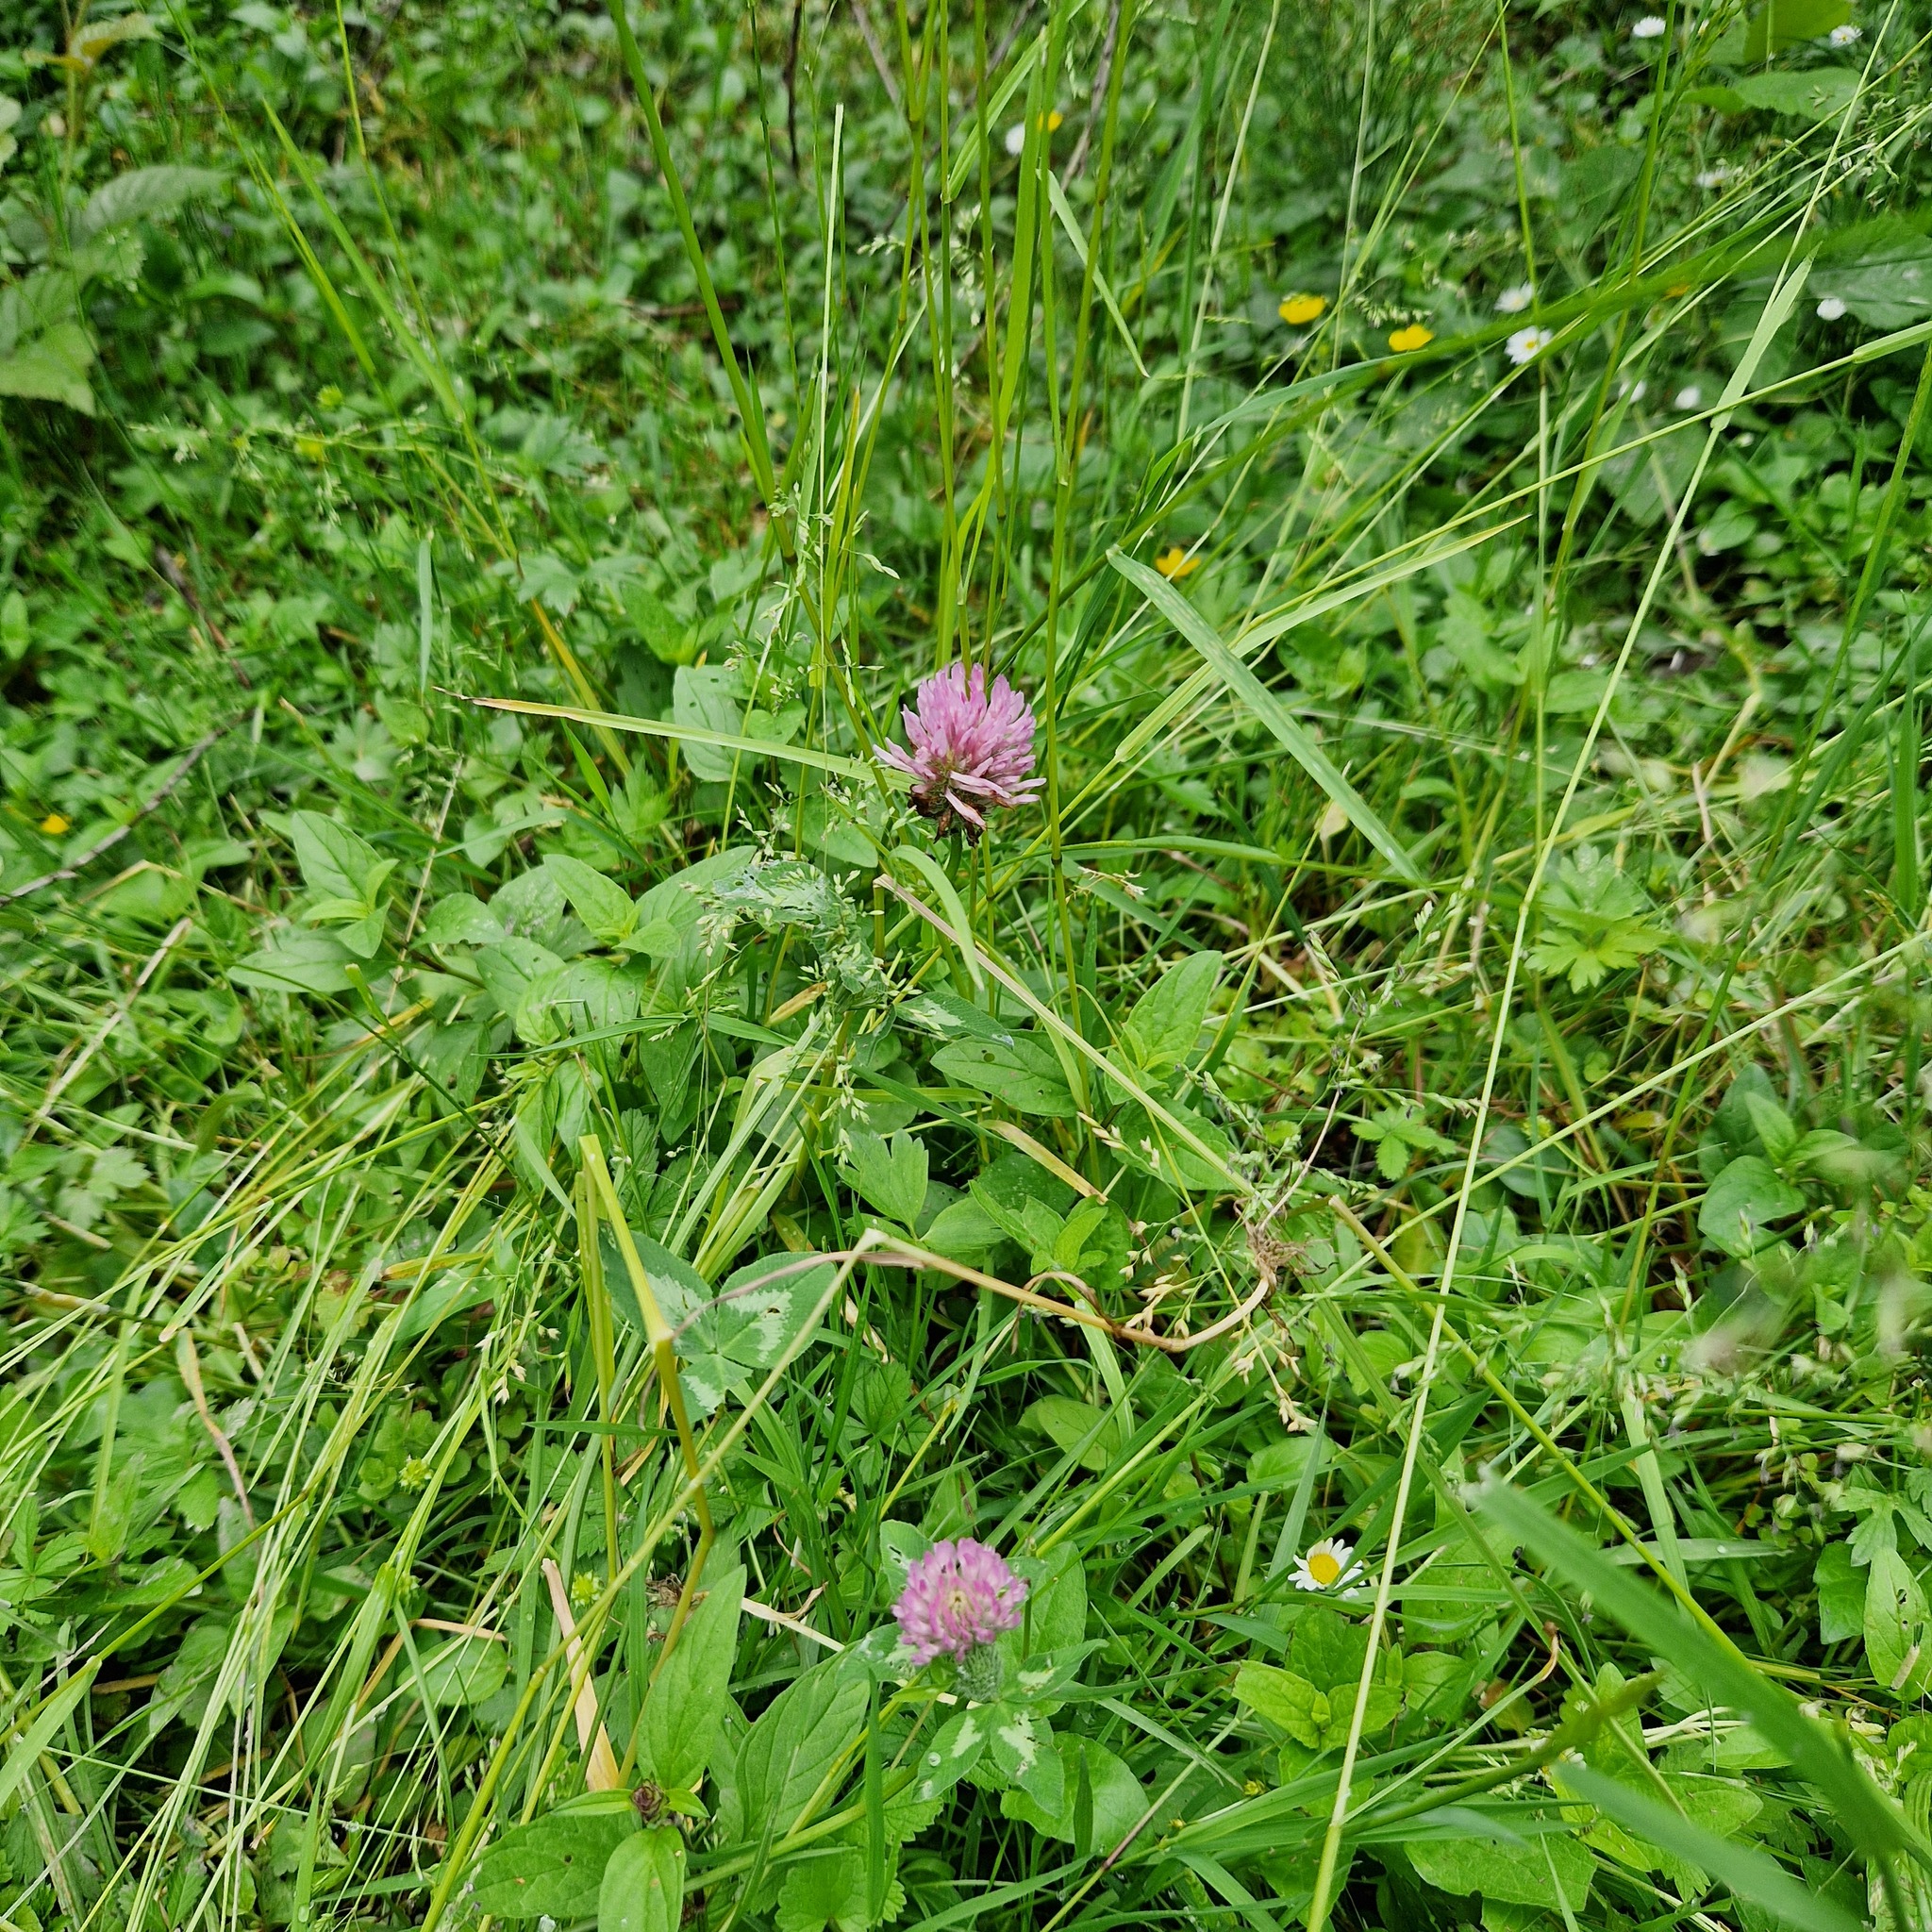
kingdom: Plantae
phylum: Tracheophyta
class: Magnoliopsida
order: Fabales
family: Fabaceae
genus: Trifolium
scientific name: Trifolium pratense
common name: Red clover
